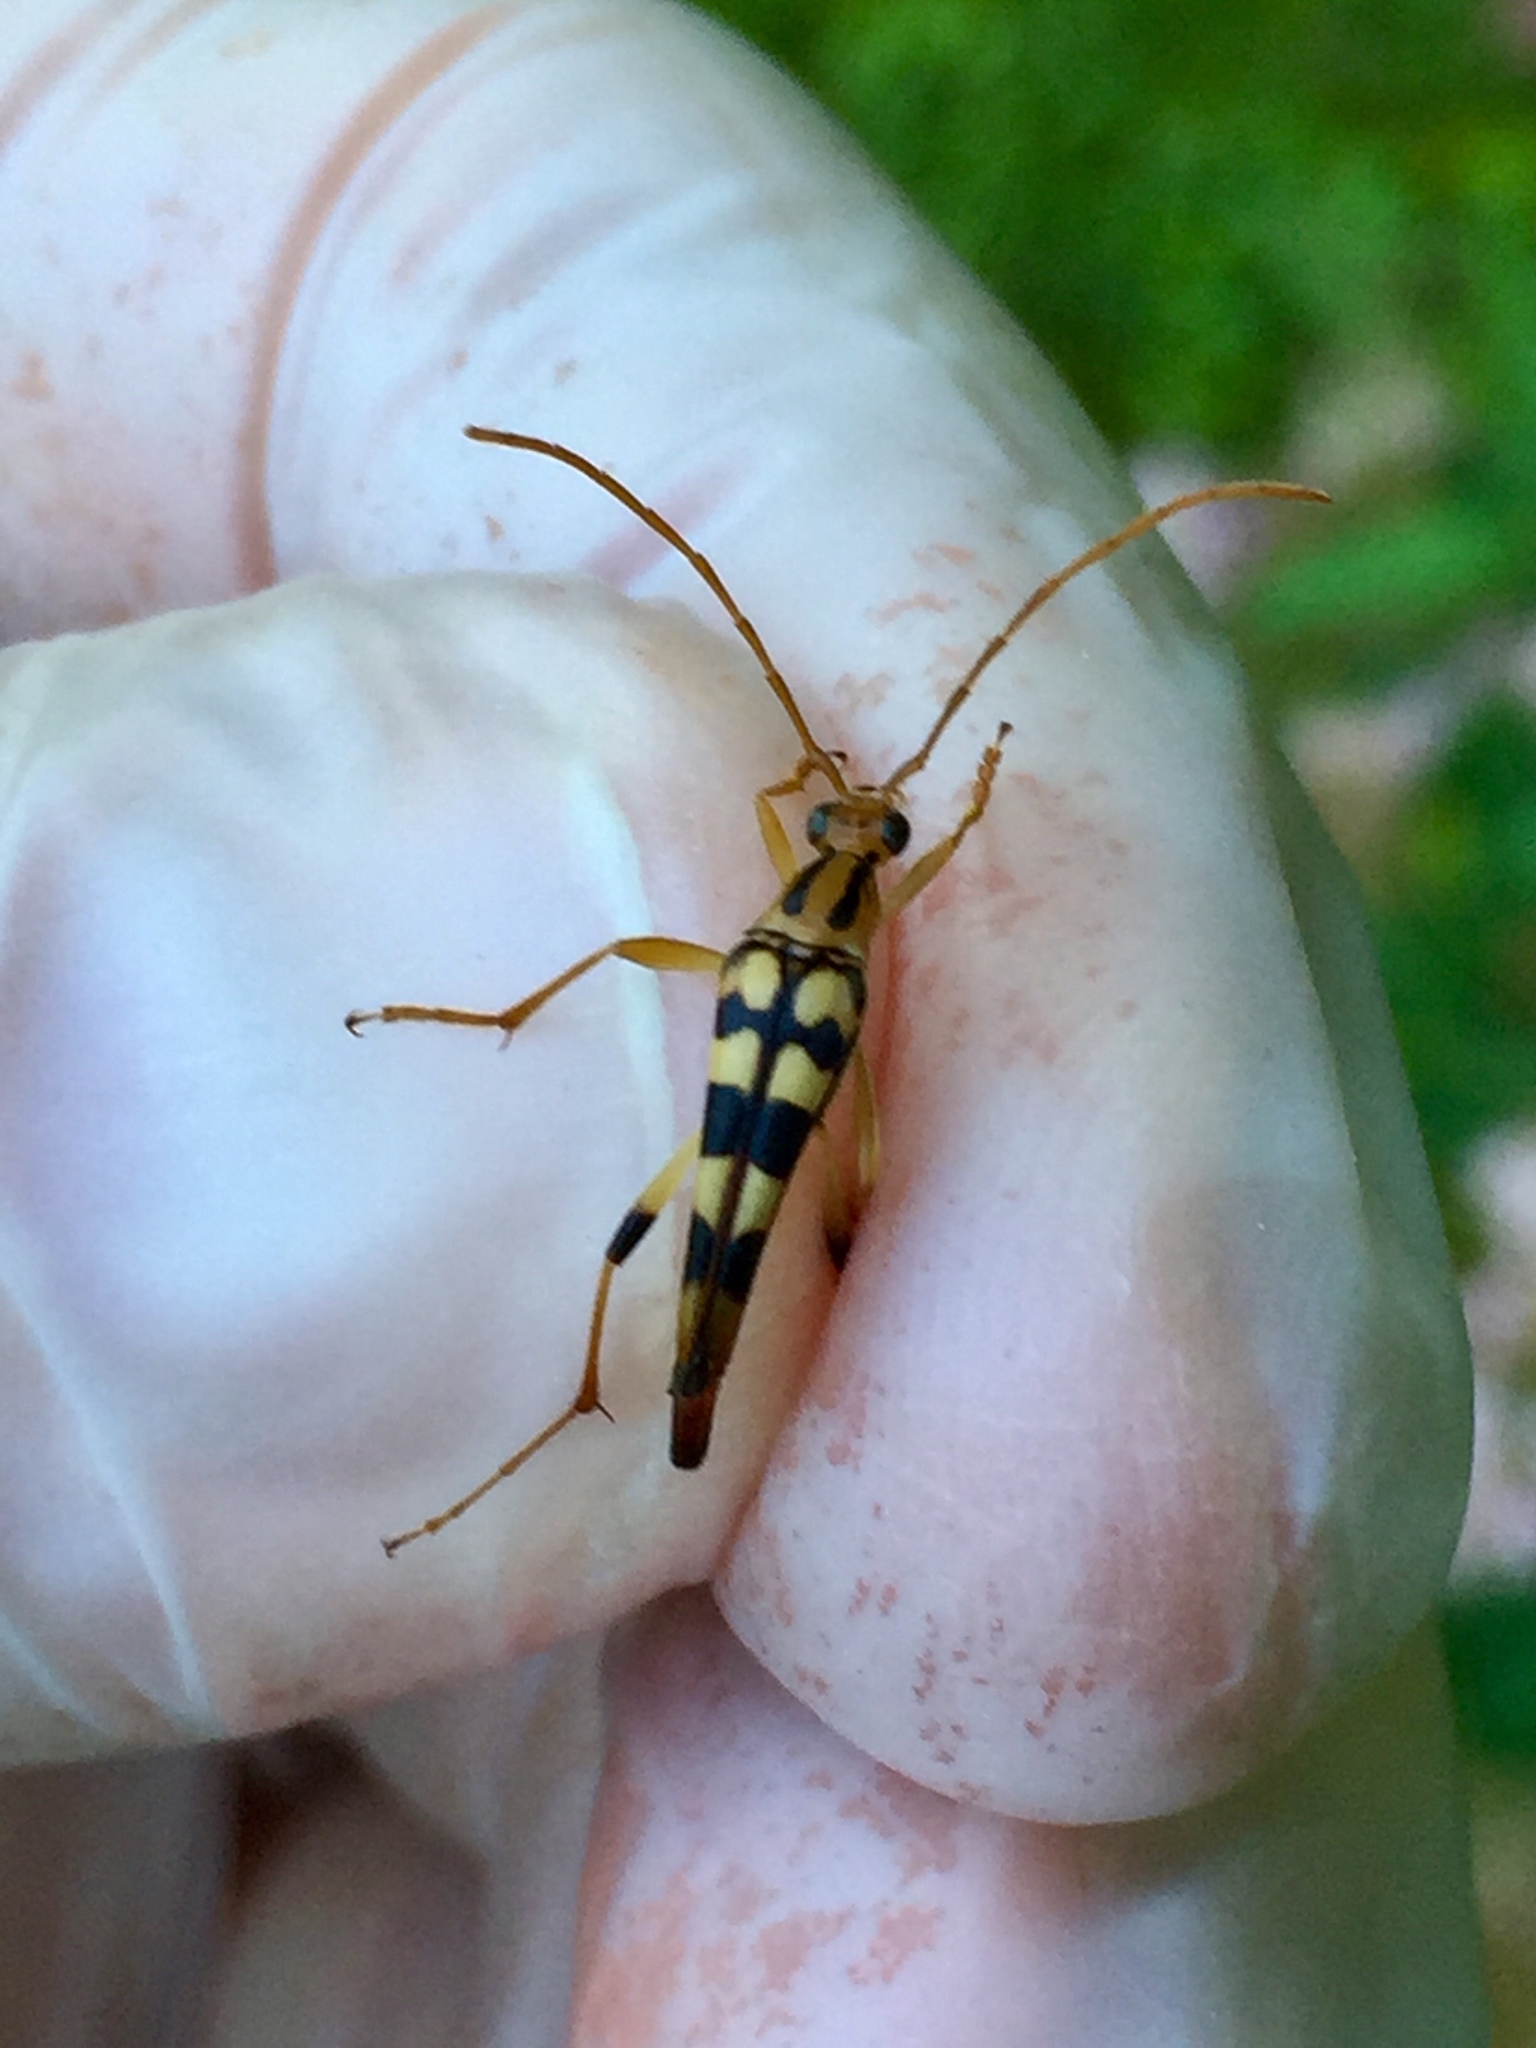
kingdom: Animalia
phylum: Arthropoda
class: Insecta
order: Coleoptera
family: Cerambycidae
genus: Strangalia
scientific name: Strangalia luteicornis
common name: Yellow-horned flower longhorn beetle
